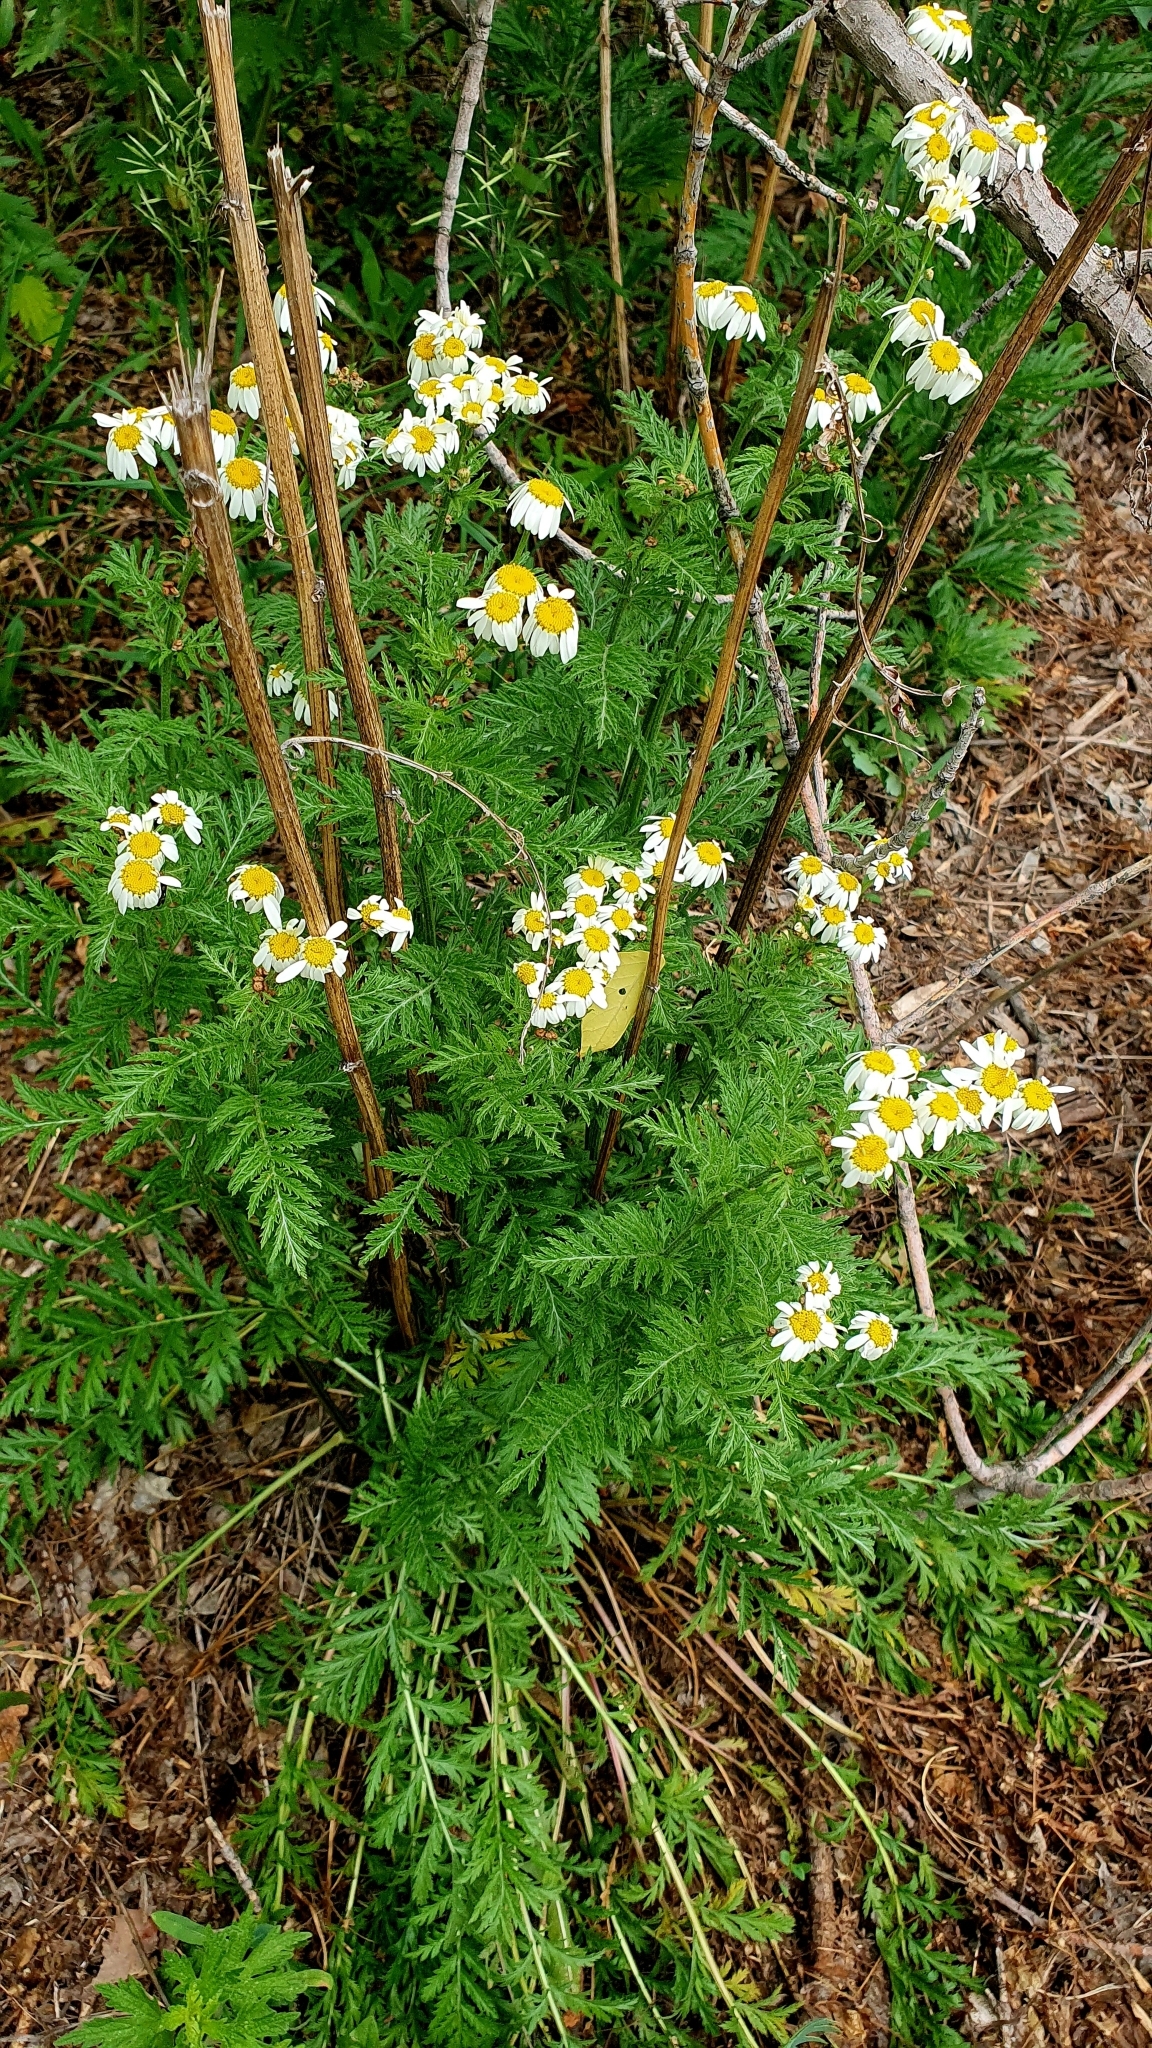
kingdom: Plantae
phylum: Tracheophyta
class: Magnoliopsida
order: Asterales
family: Asteraceae
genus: Tanacetum
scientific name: Tanacetum corymbosum
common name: Scentless feverfew
